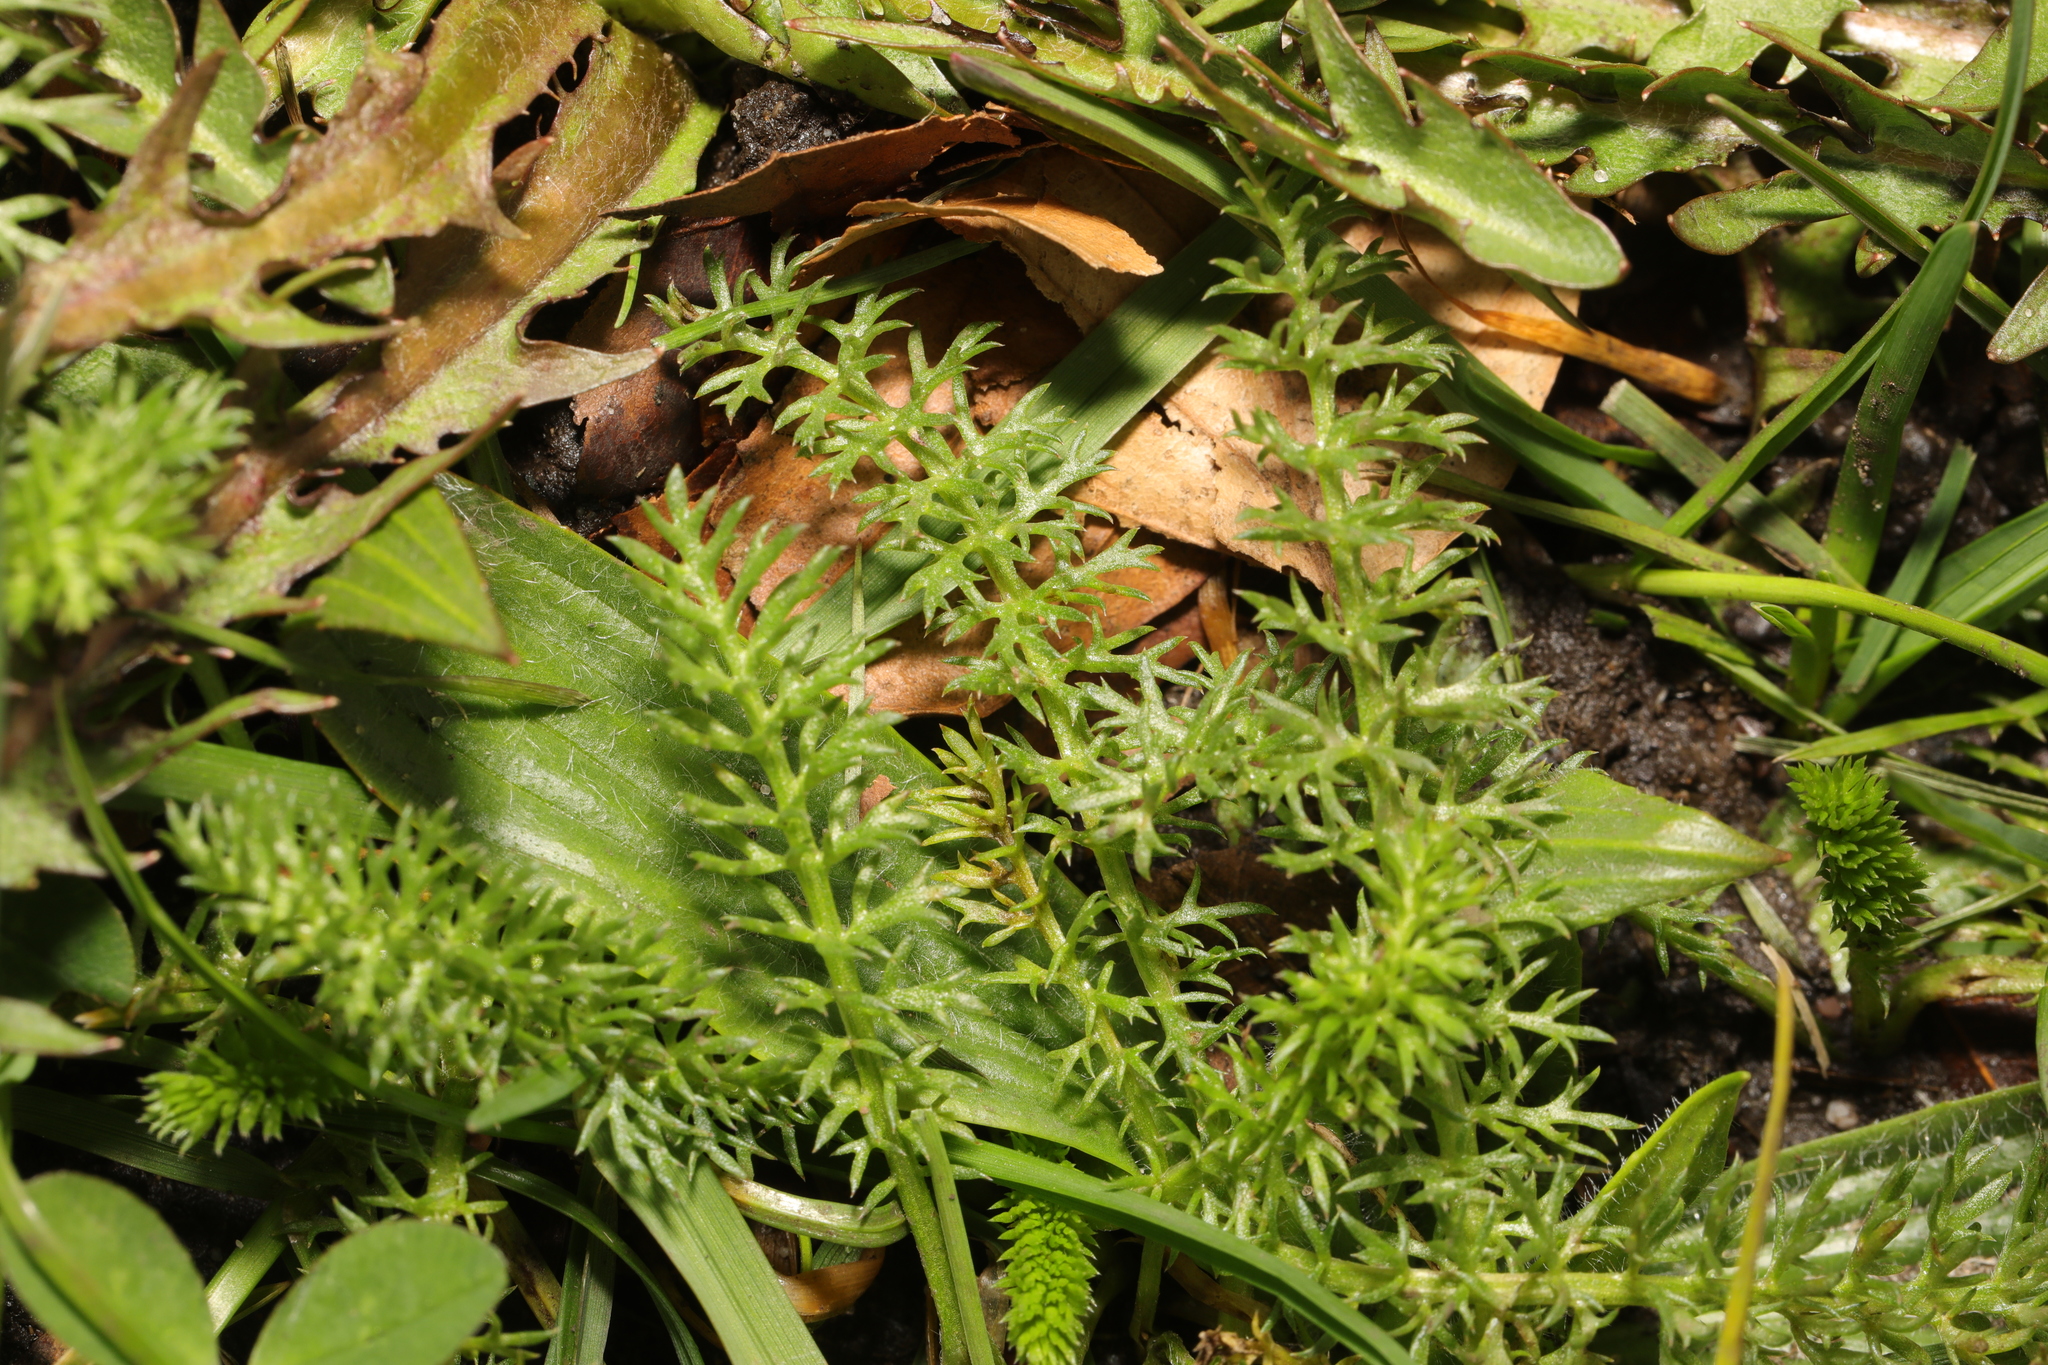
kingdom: Plantae
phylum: Tracheophyta
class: Magnoliopsida
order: Asterales
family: Asteraceae
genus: Achillea
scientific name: Achillea millefolium
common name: Yarrow
